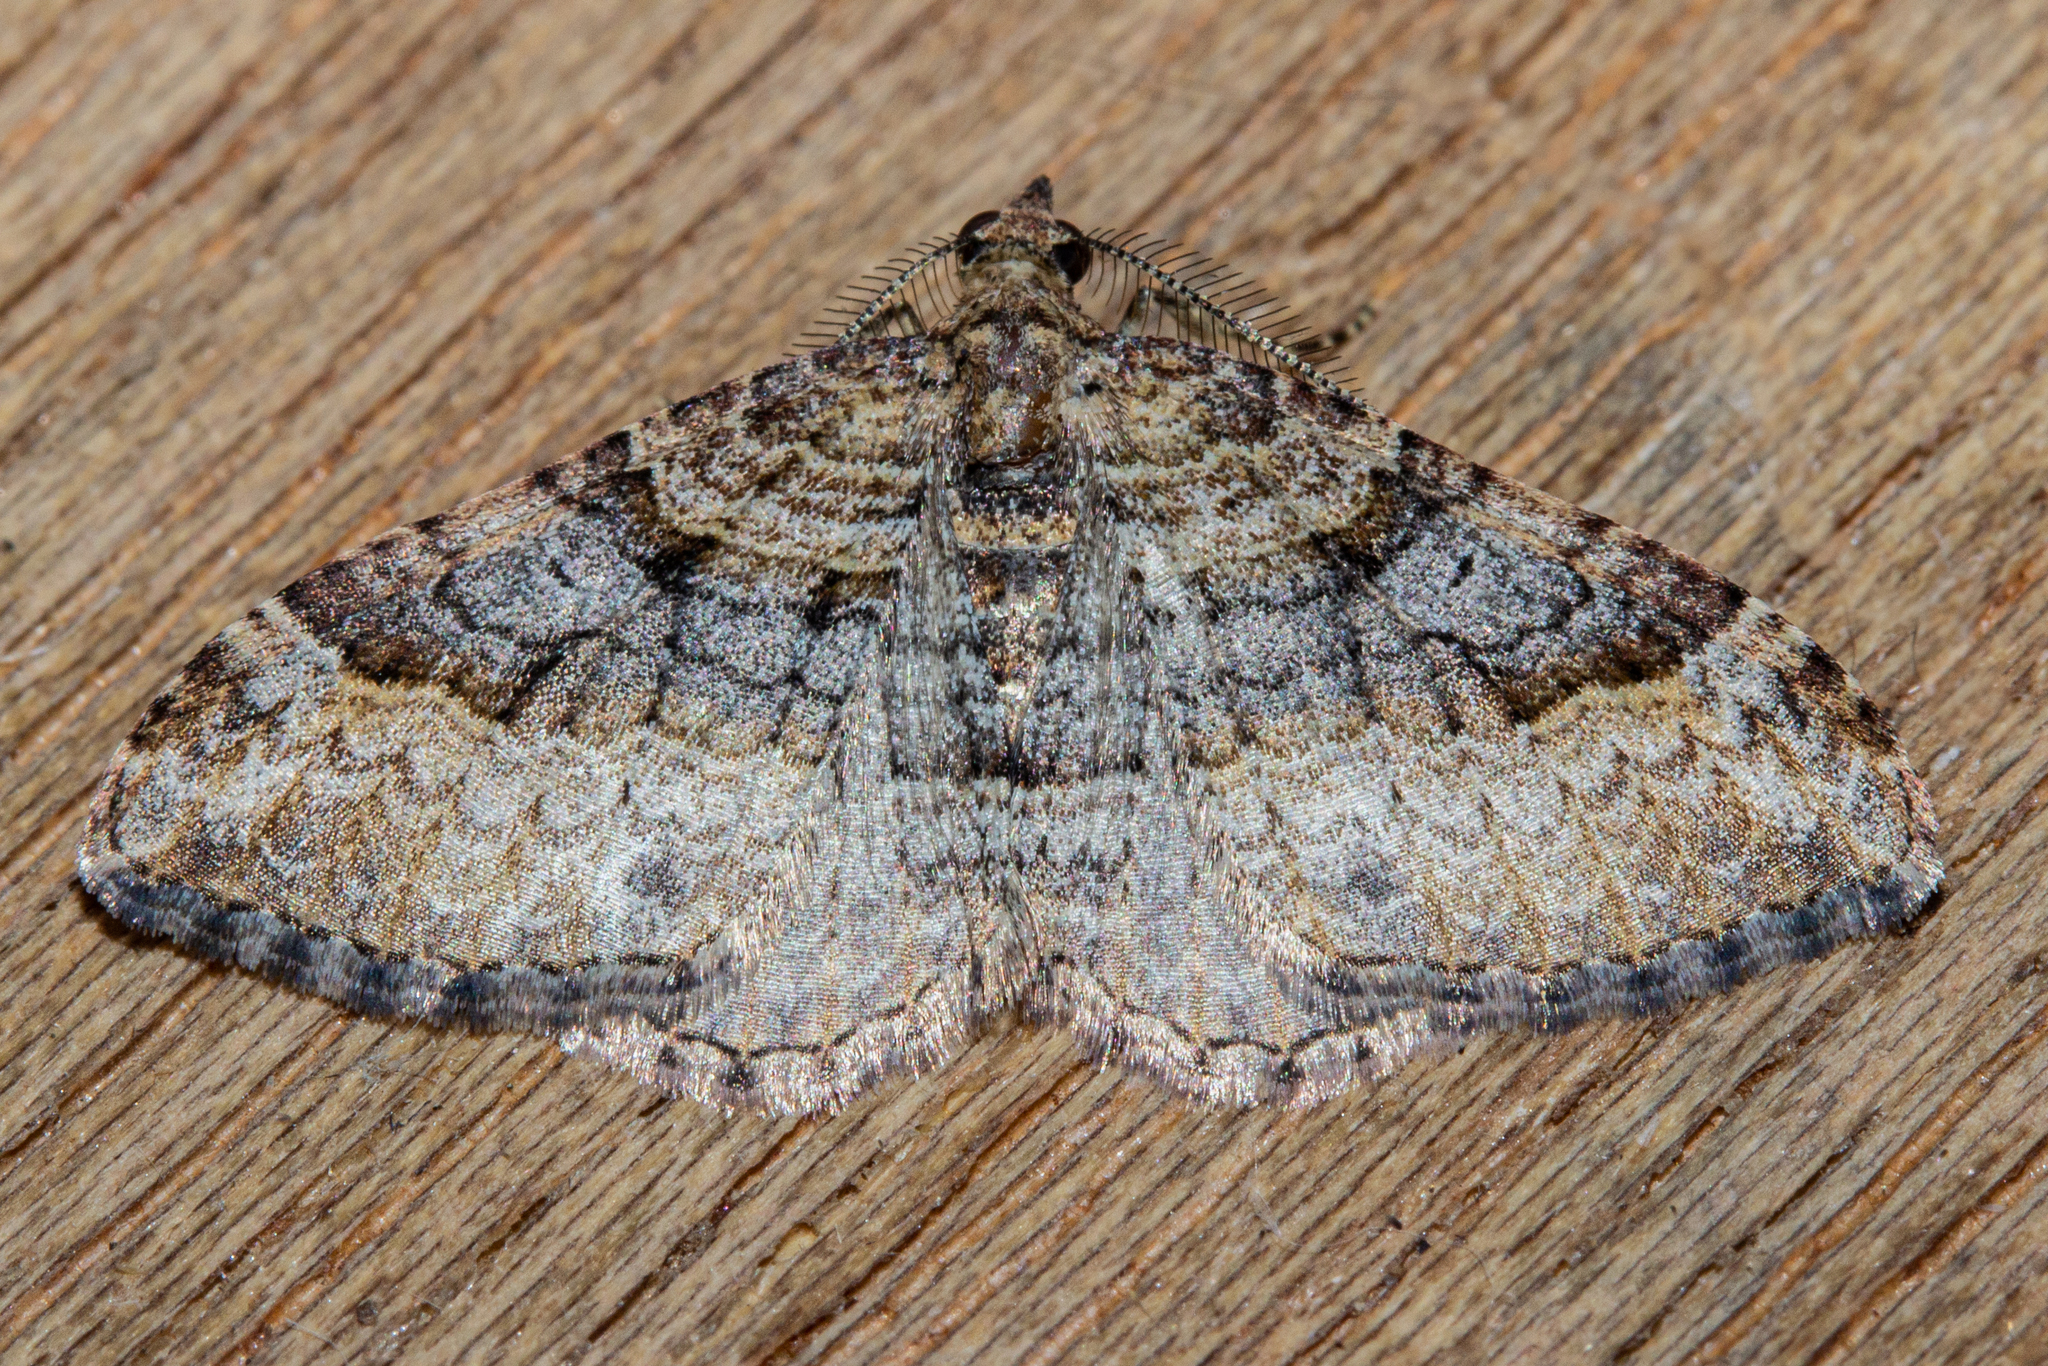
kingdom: Animalia
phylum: Arthropoda
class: Insecta
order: Lepidoptera
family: Geometridae
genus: Epyaxa
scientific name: Epyaxa lucidata
